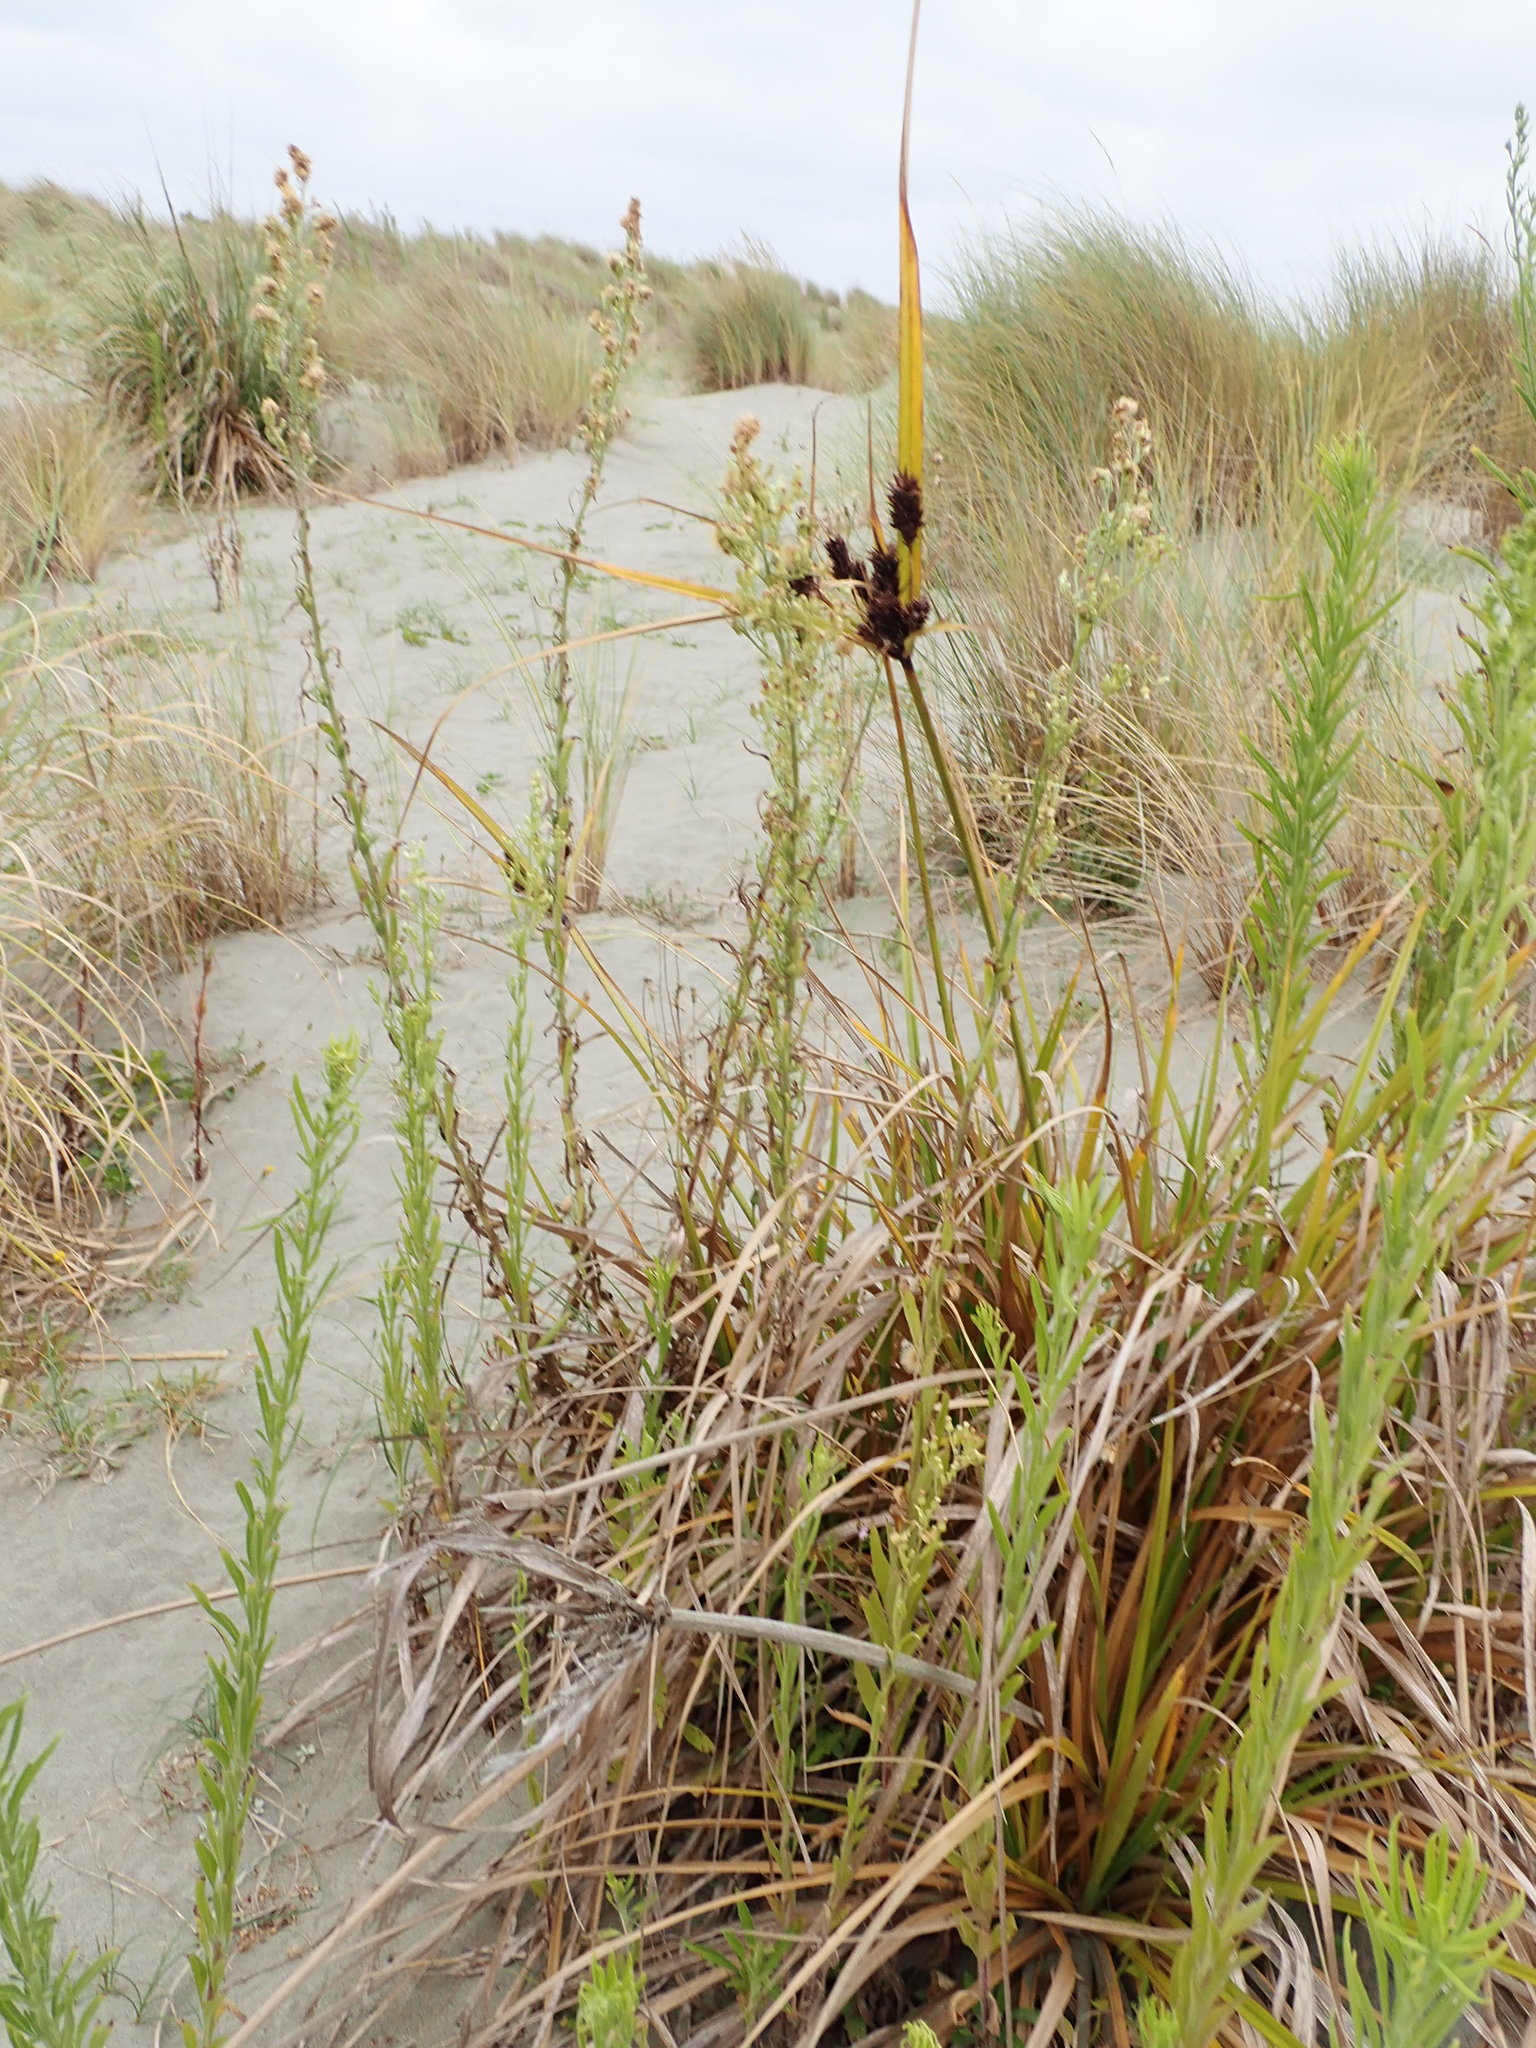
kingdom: Plantae
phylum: Tracheophyta
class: Liliopsida
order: Poales
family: Cyperaceae
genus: Cyperus
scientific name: Cyperus ustulatus
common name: Giant umbrella-sedge
